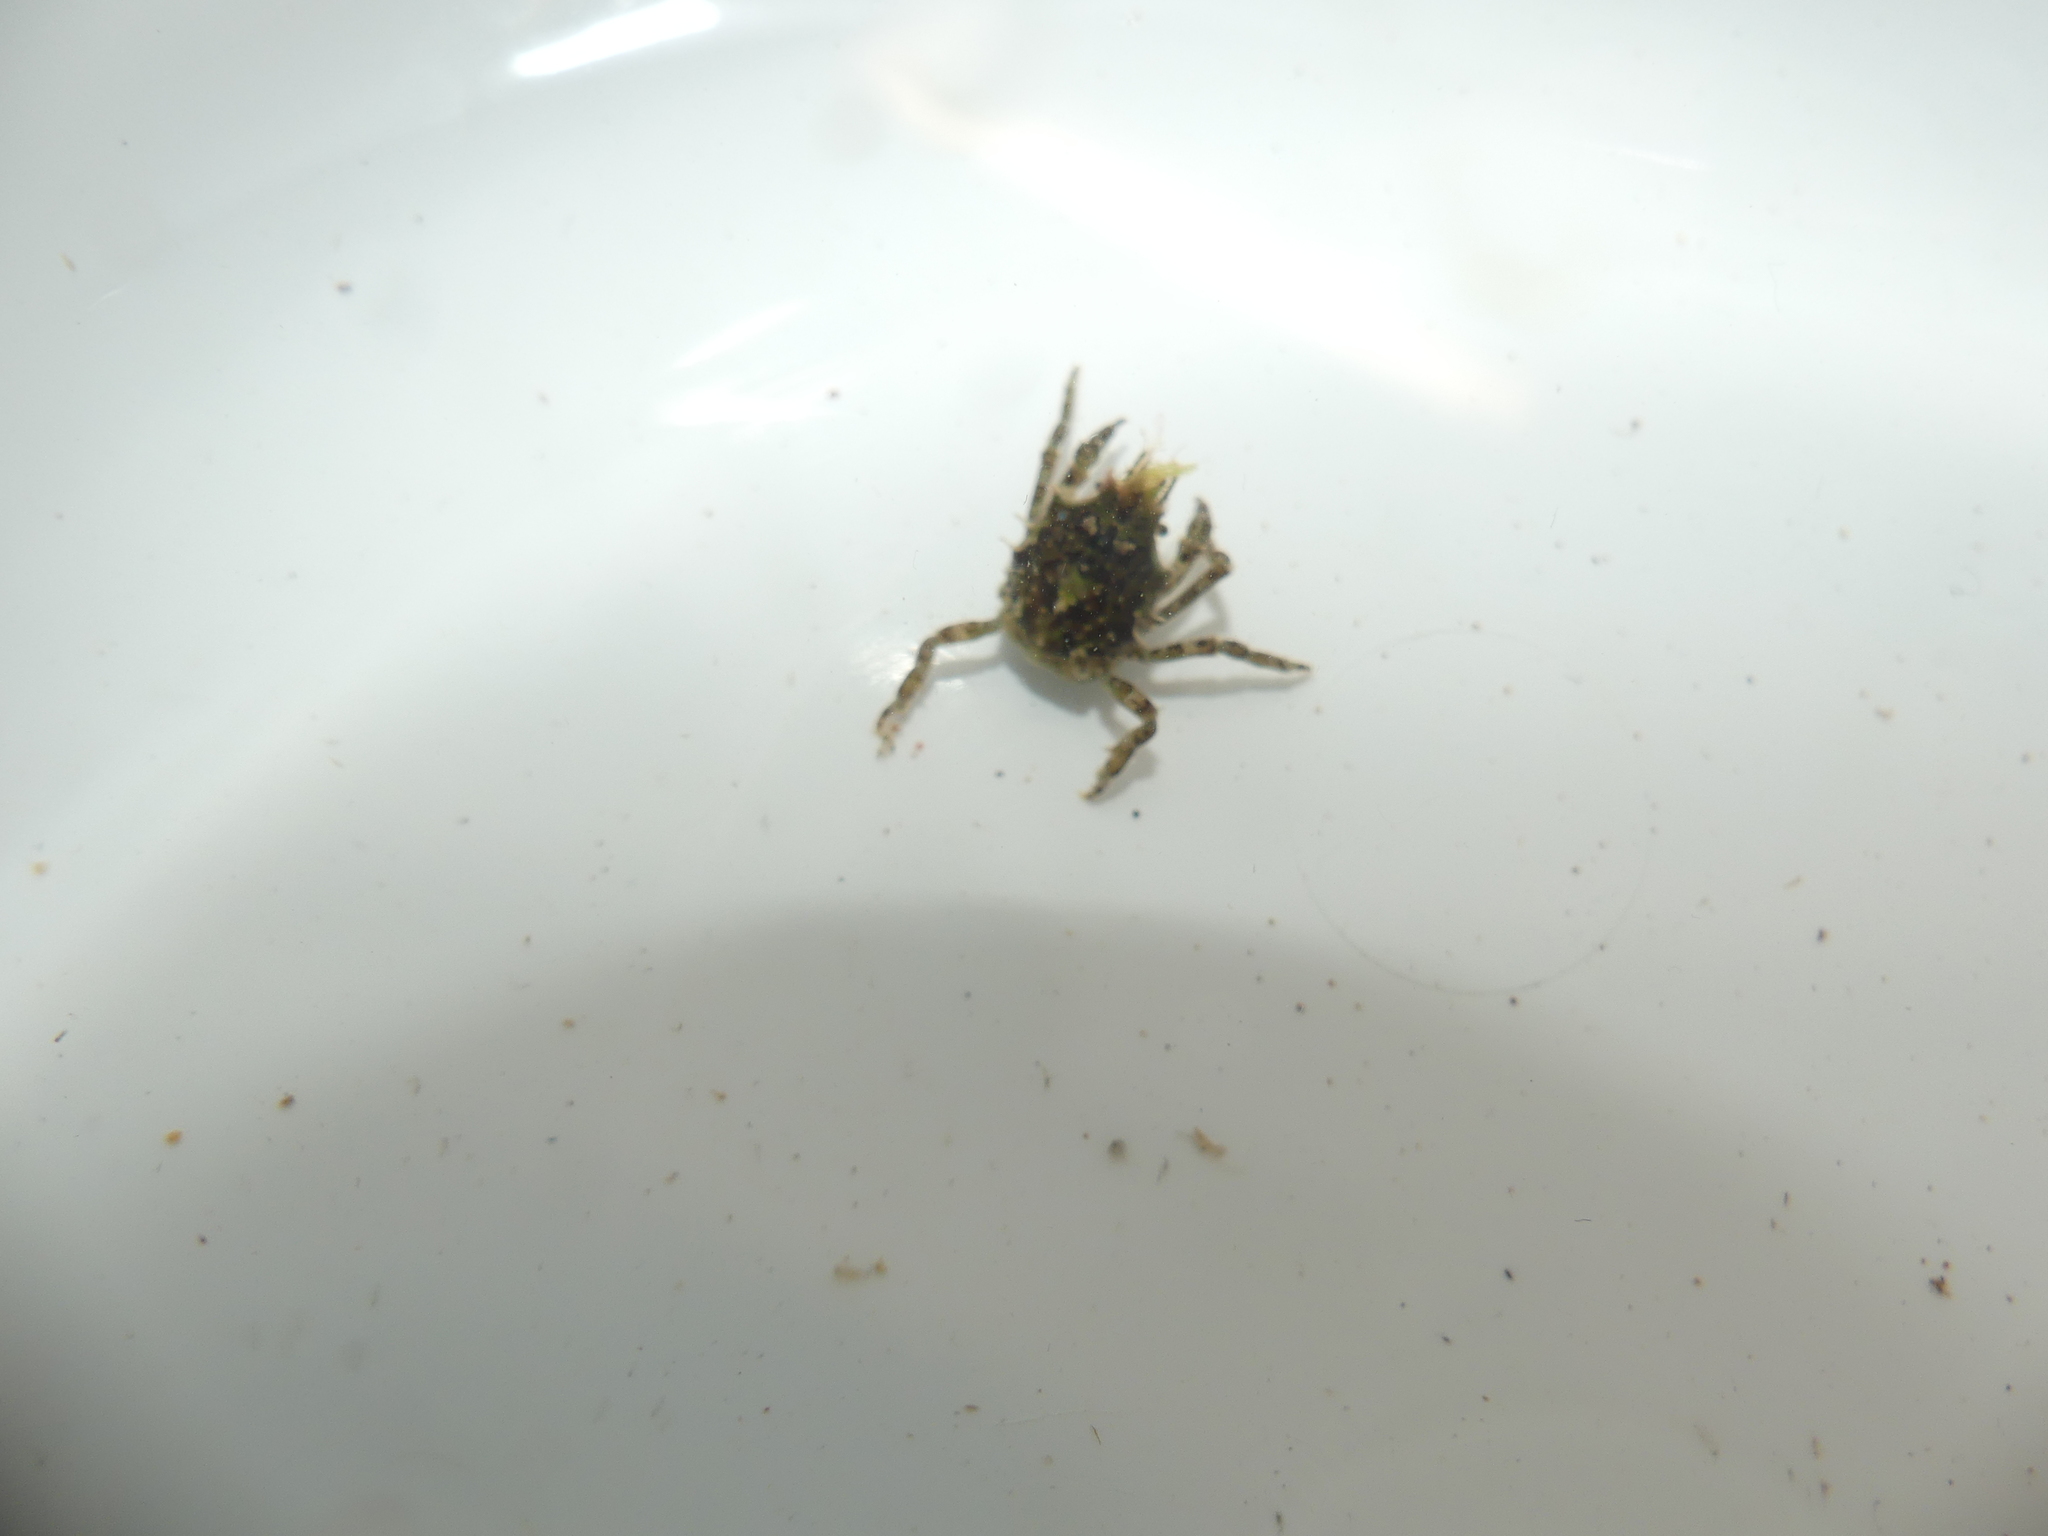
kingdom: Animalia
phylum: Arthropoda
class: Malacostraca
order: Decapoda
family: Epialtidae
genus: Acanthonyx
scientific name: Acanthonyx lunulatus
